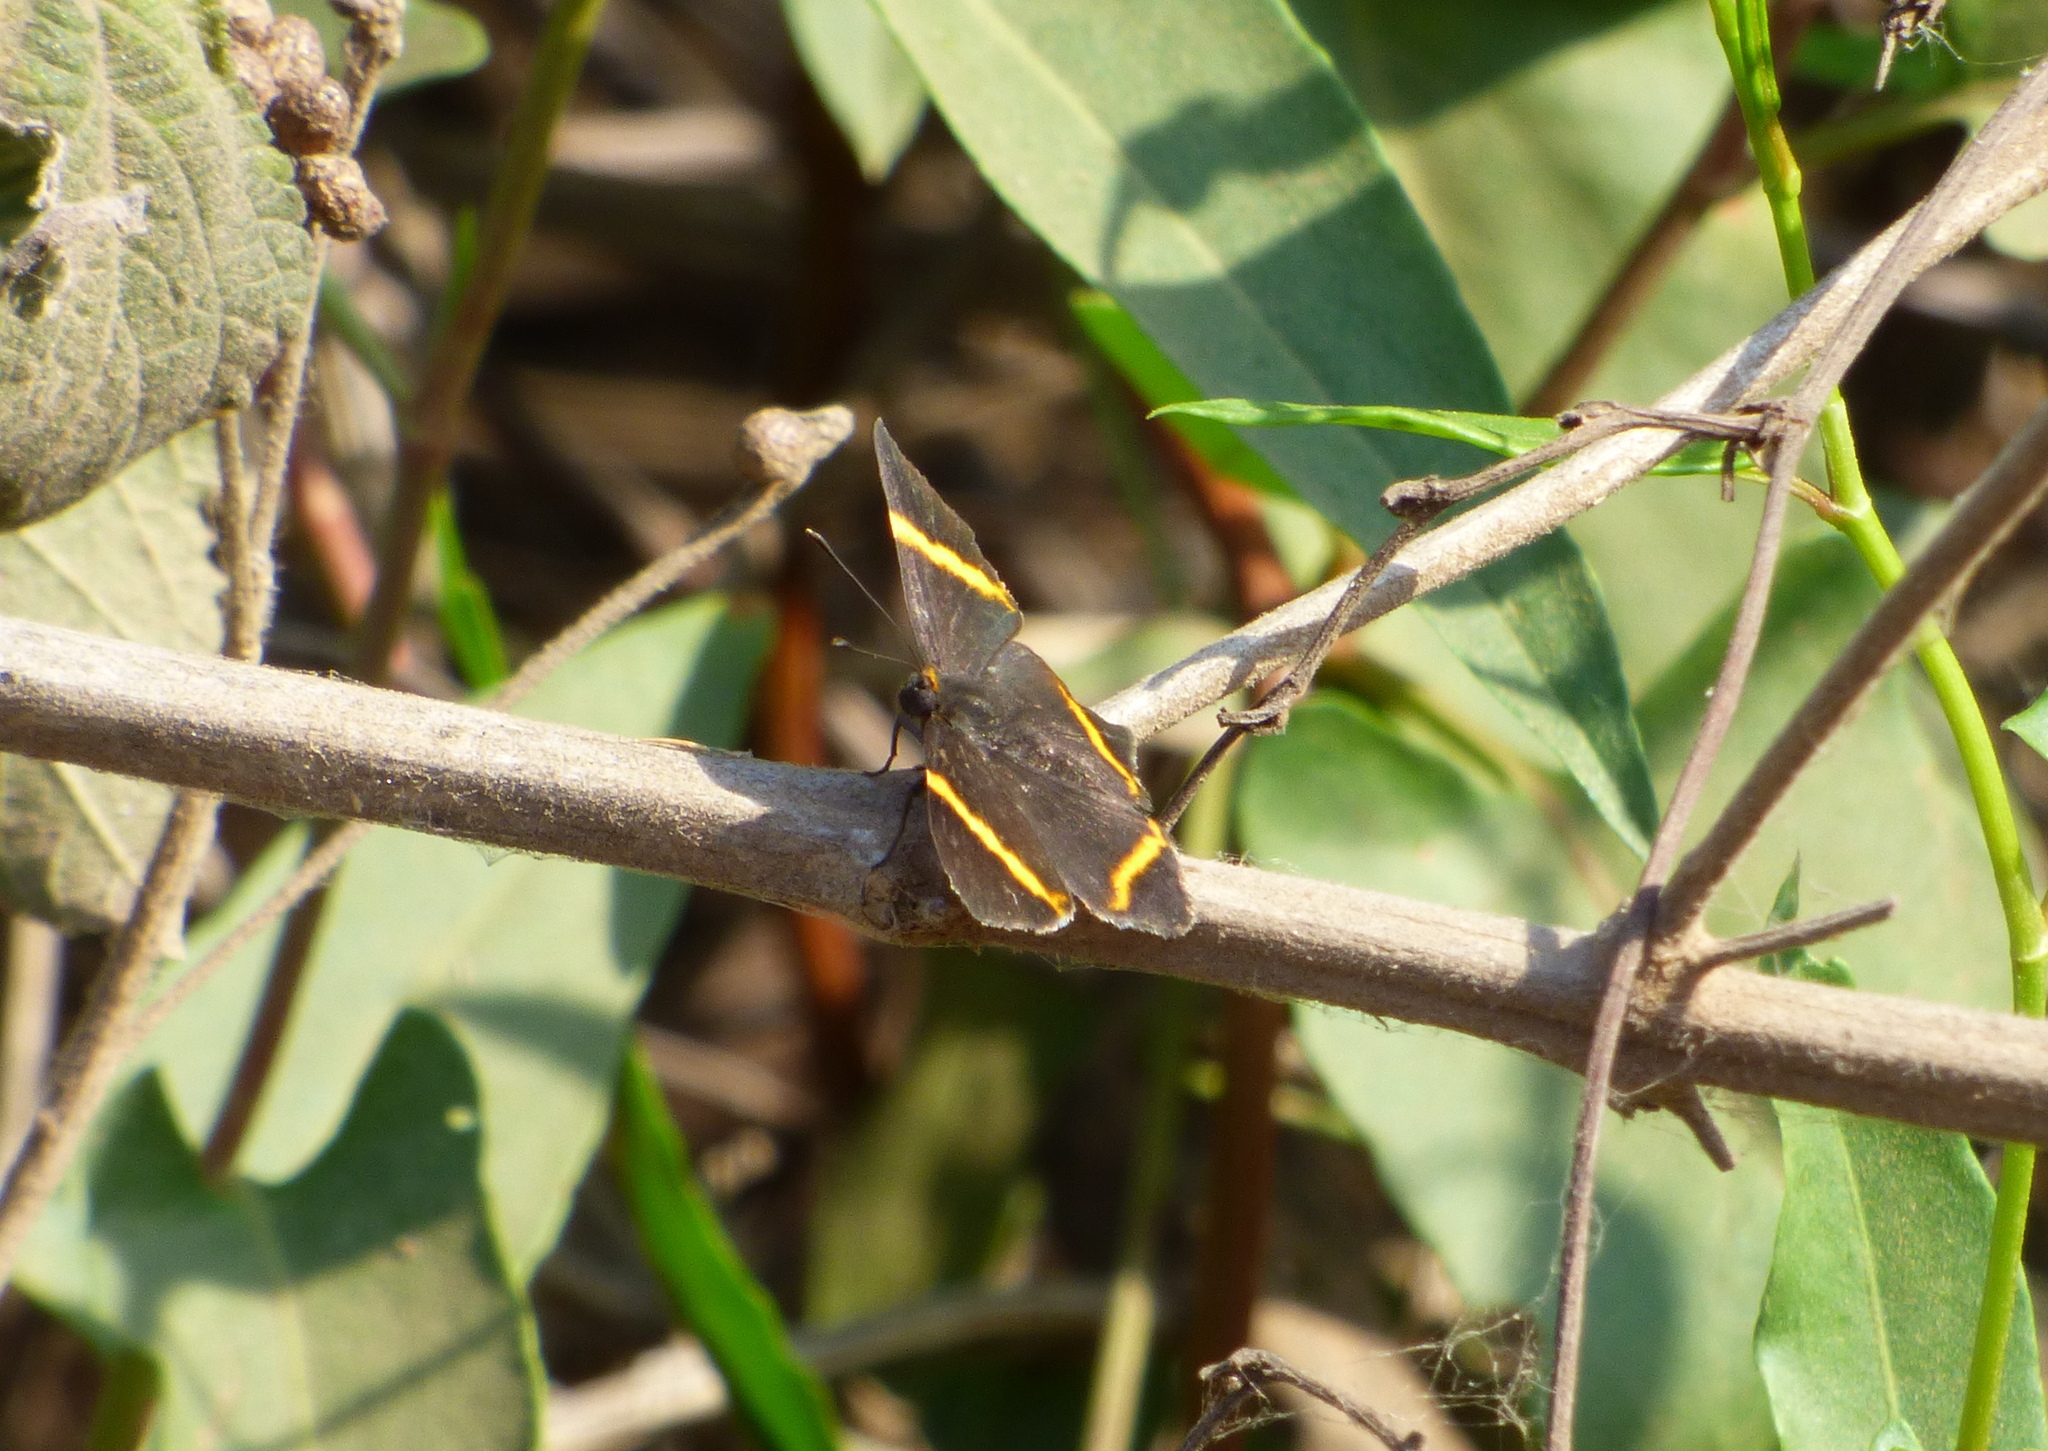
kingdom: Animalia
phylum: Arthropoda
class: Insecta
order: Lepidoptera
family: Riodinidae
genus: Riodina
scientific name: Riodina lysippoides
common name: Little dancer metalmark
